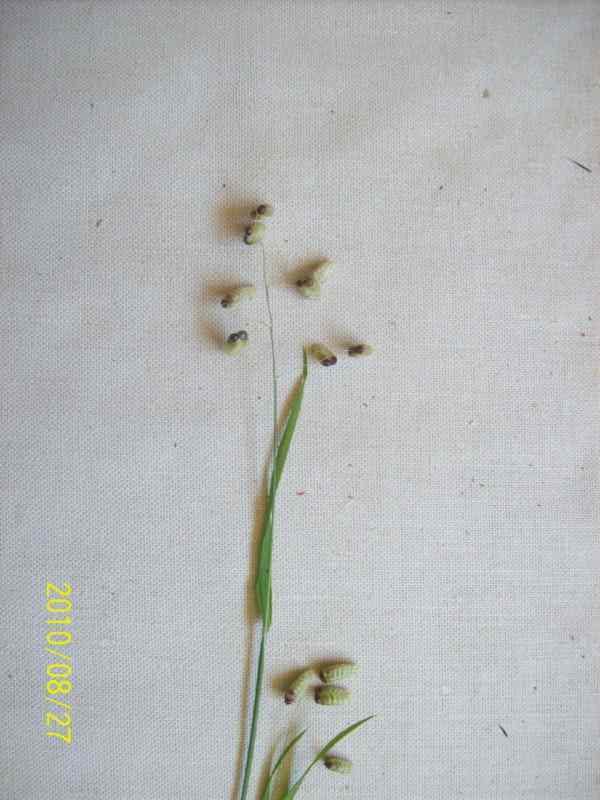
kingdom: Plantae
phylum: Tracheophyta
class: Liliopsida
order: Poales
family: Poaceae
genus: Briza
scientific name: Briza maxima
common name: Big quakinggrass
